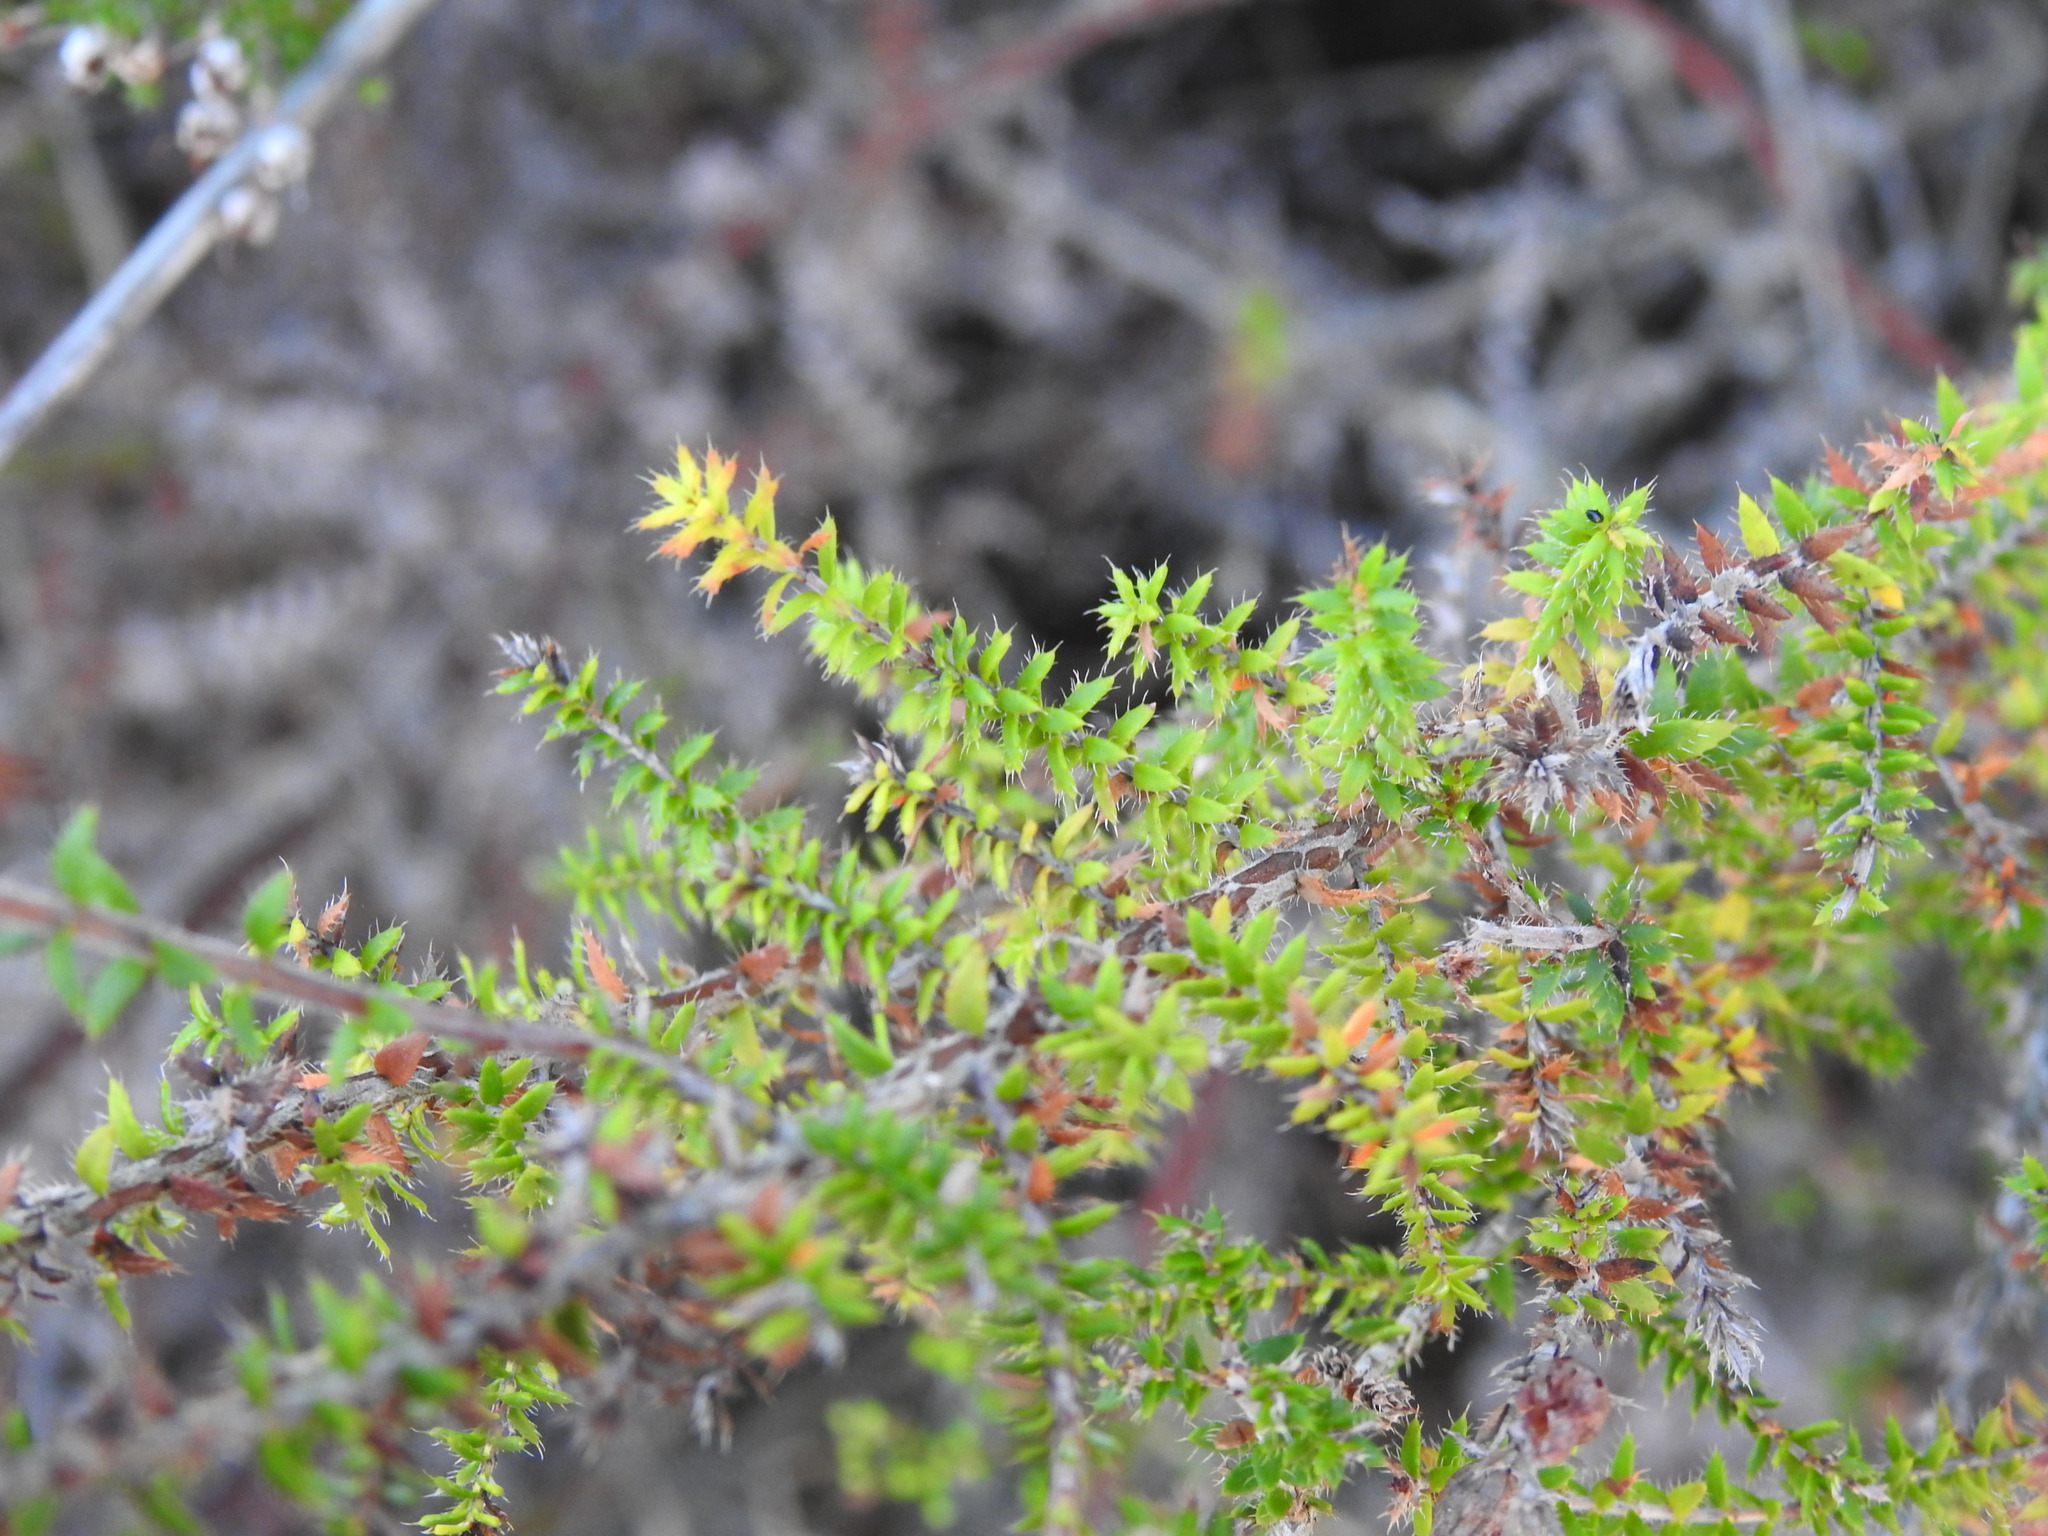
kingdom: Plantae
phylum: Tracheophyta
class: Magnoliopsida
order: Ericales
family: Ericaceae
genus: Erica
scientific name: Erica ciliaris
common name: Dorset heath
